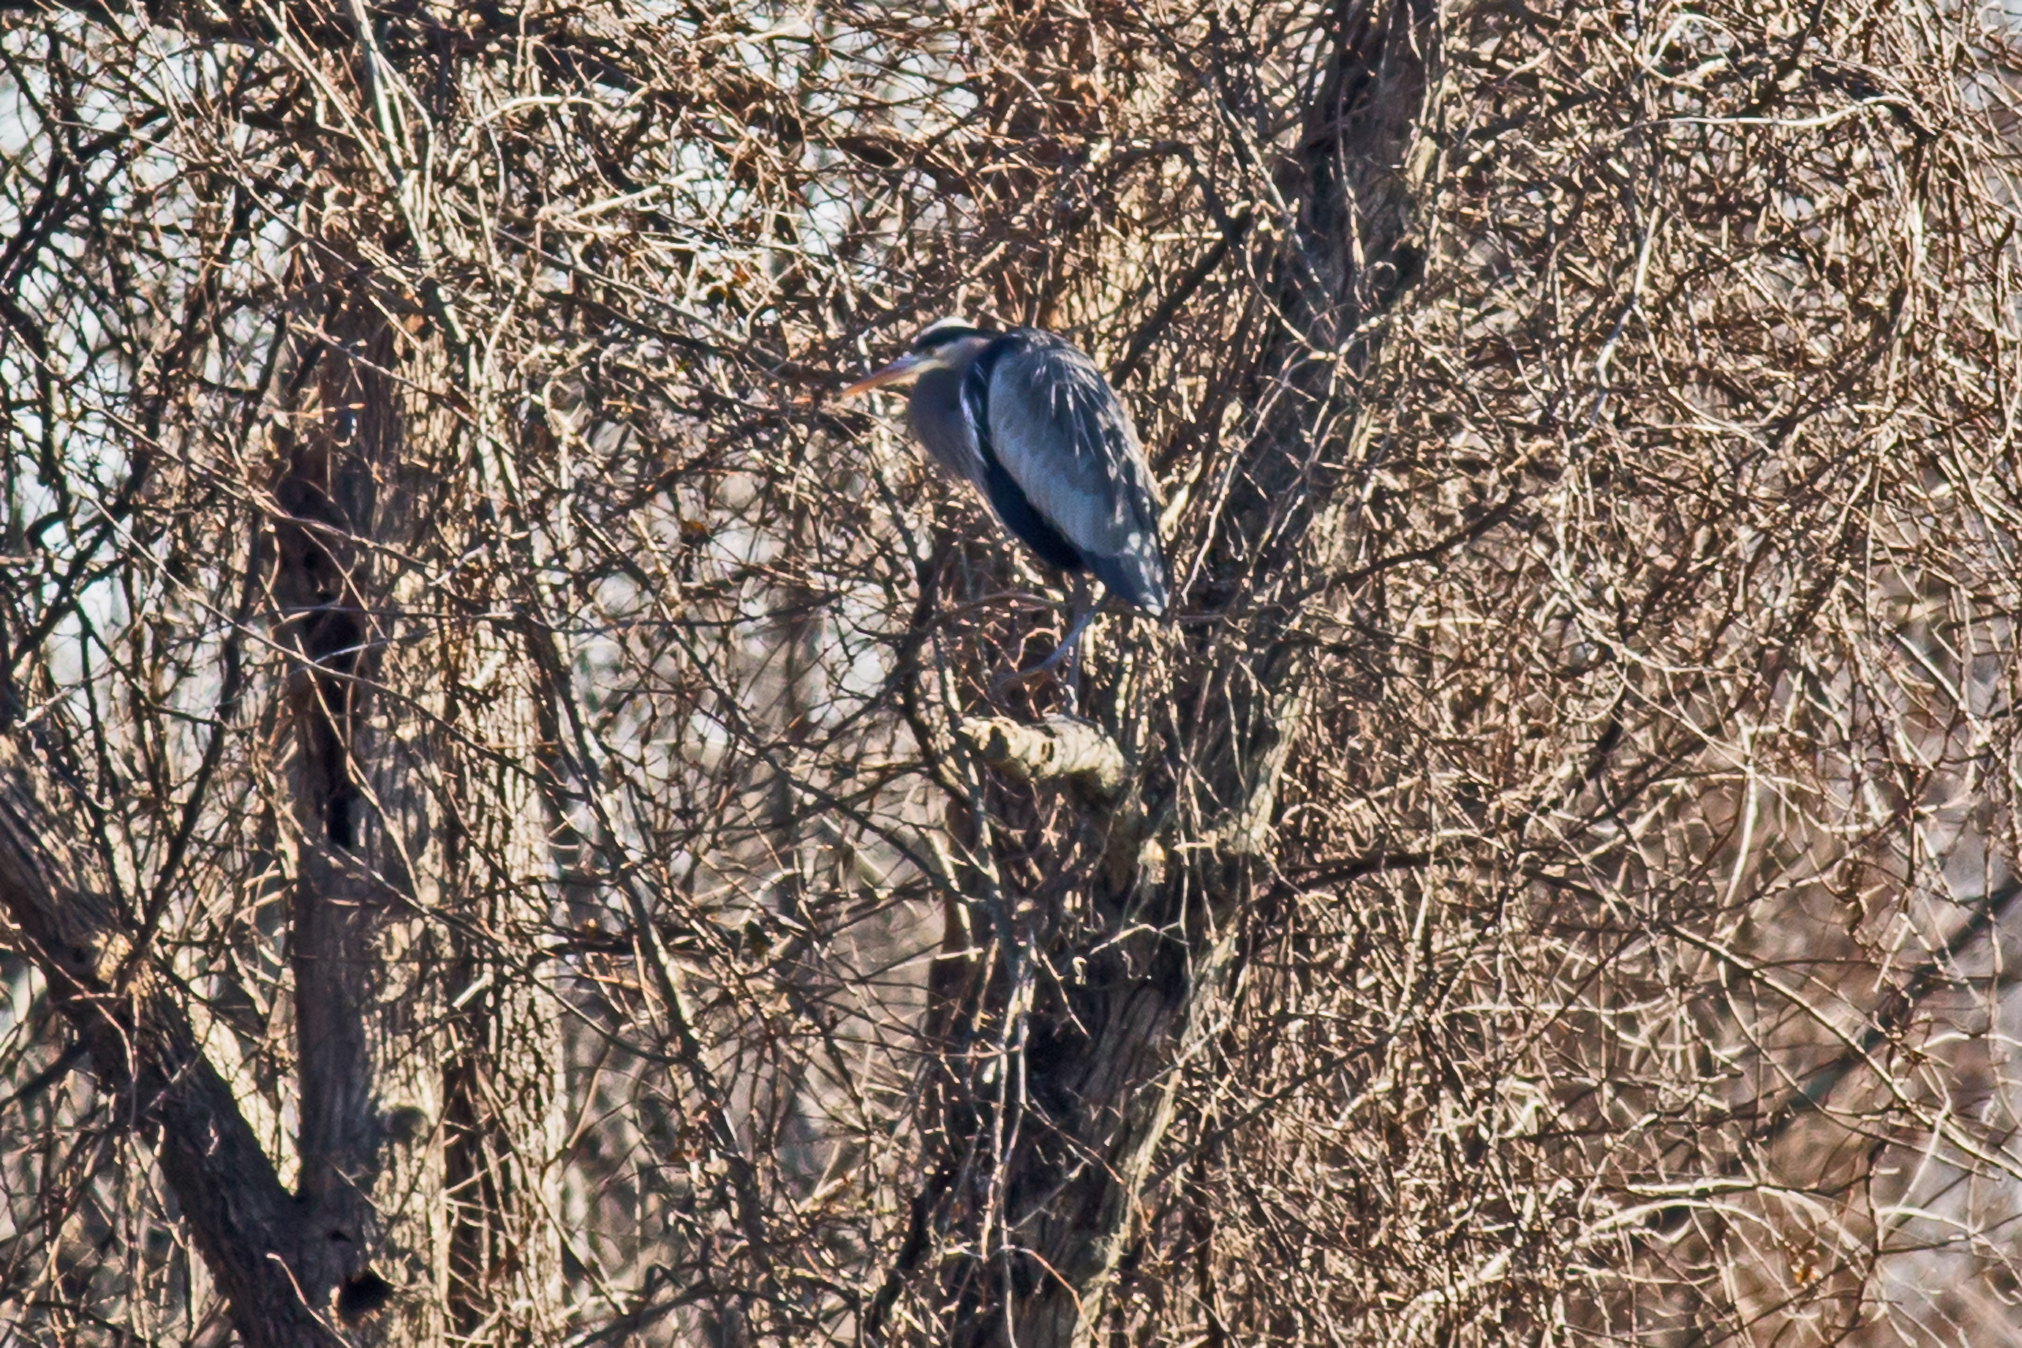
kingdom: Animalia
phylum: Chordata
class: Aves
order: Pelecaniformes
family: Ardeidae
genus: Ardea
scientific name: Ardea herodias
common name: Great blue heron
